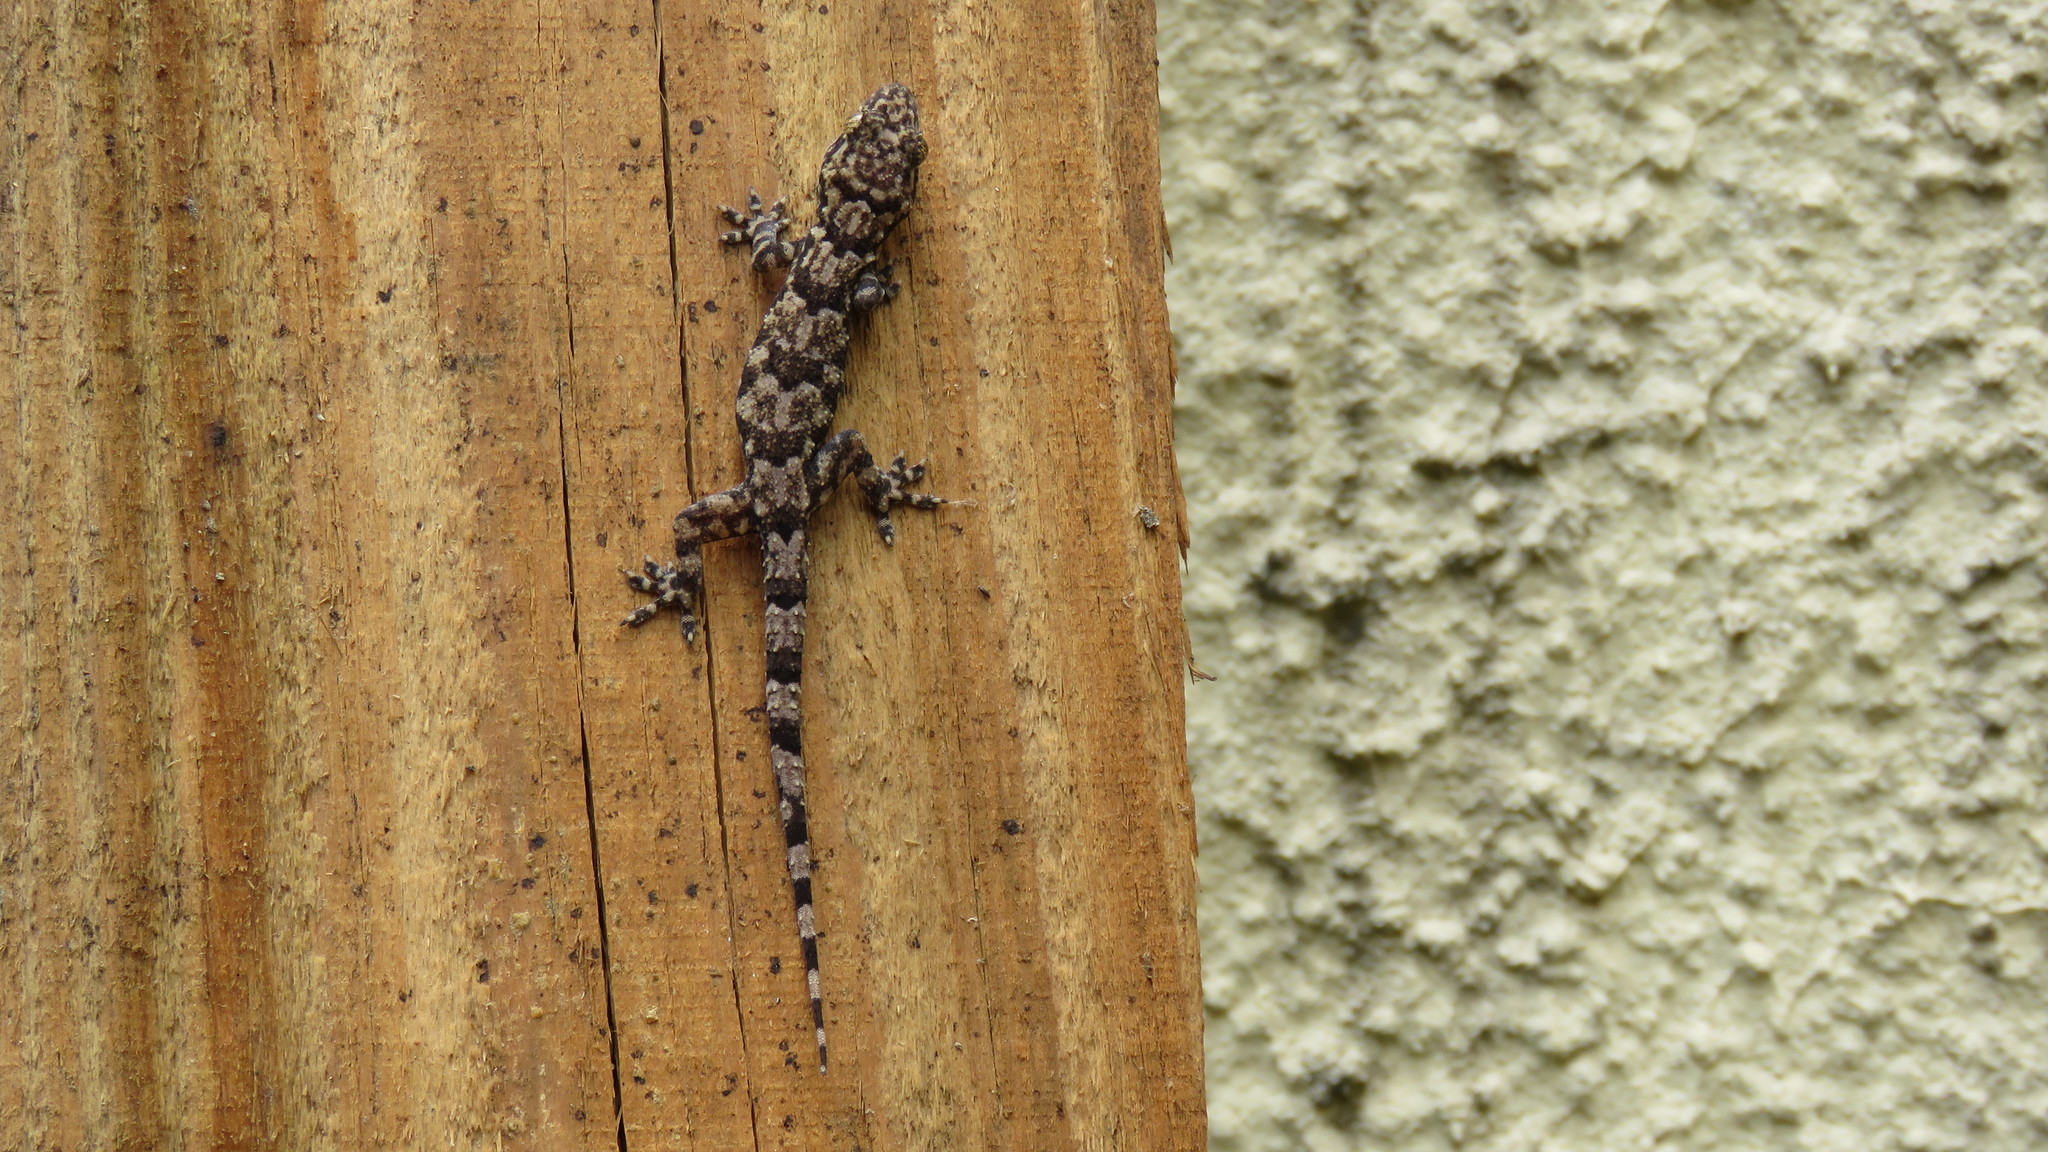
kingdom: Animalia
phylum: Chordata
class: Squamata
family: Gekkonidae
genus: Hemidactylus
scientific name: Hemidactylus mabouia
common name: House gecko
